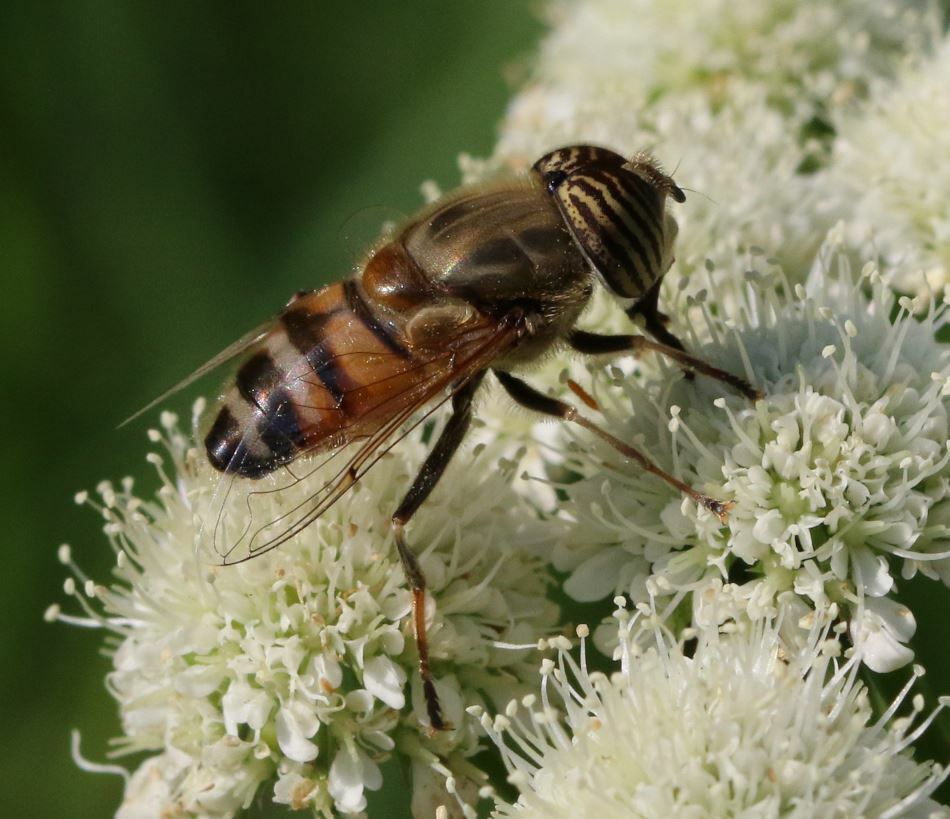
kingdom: Animalia
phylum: Arthropoda
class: Insecta
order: Diptera
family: Syrphidae
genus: Eristalinus
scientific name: Eristalinus taeniops
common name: Syrphid fly
